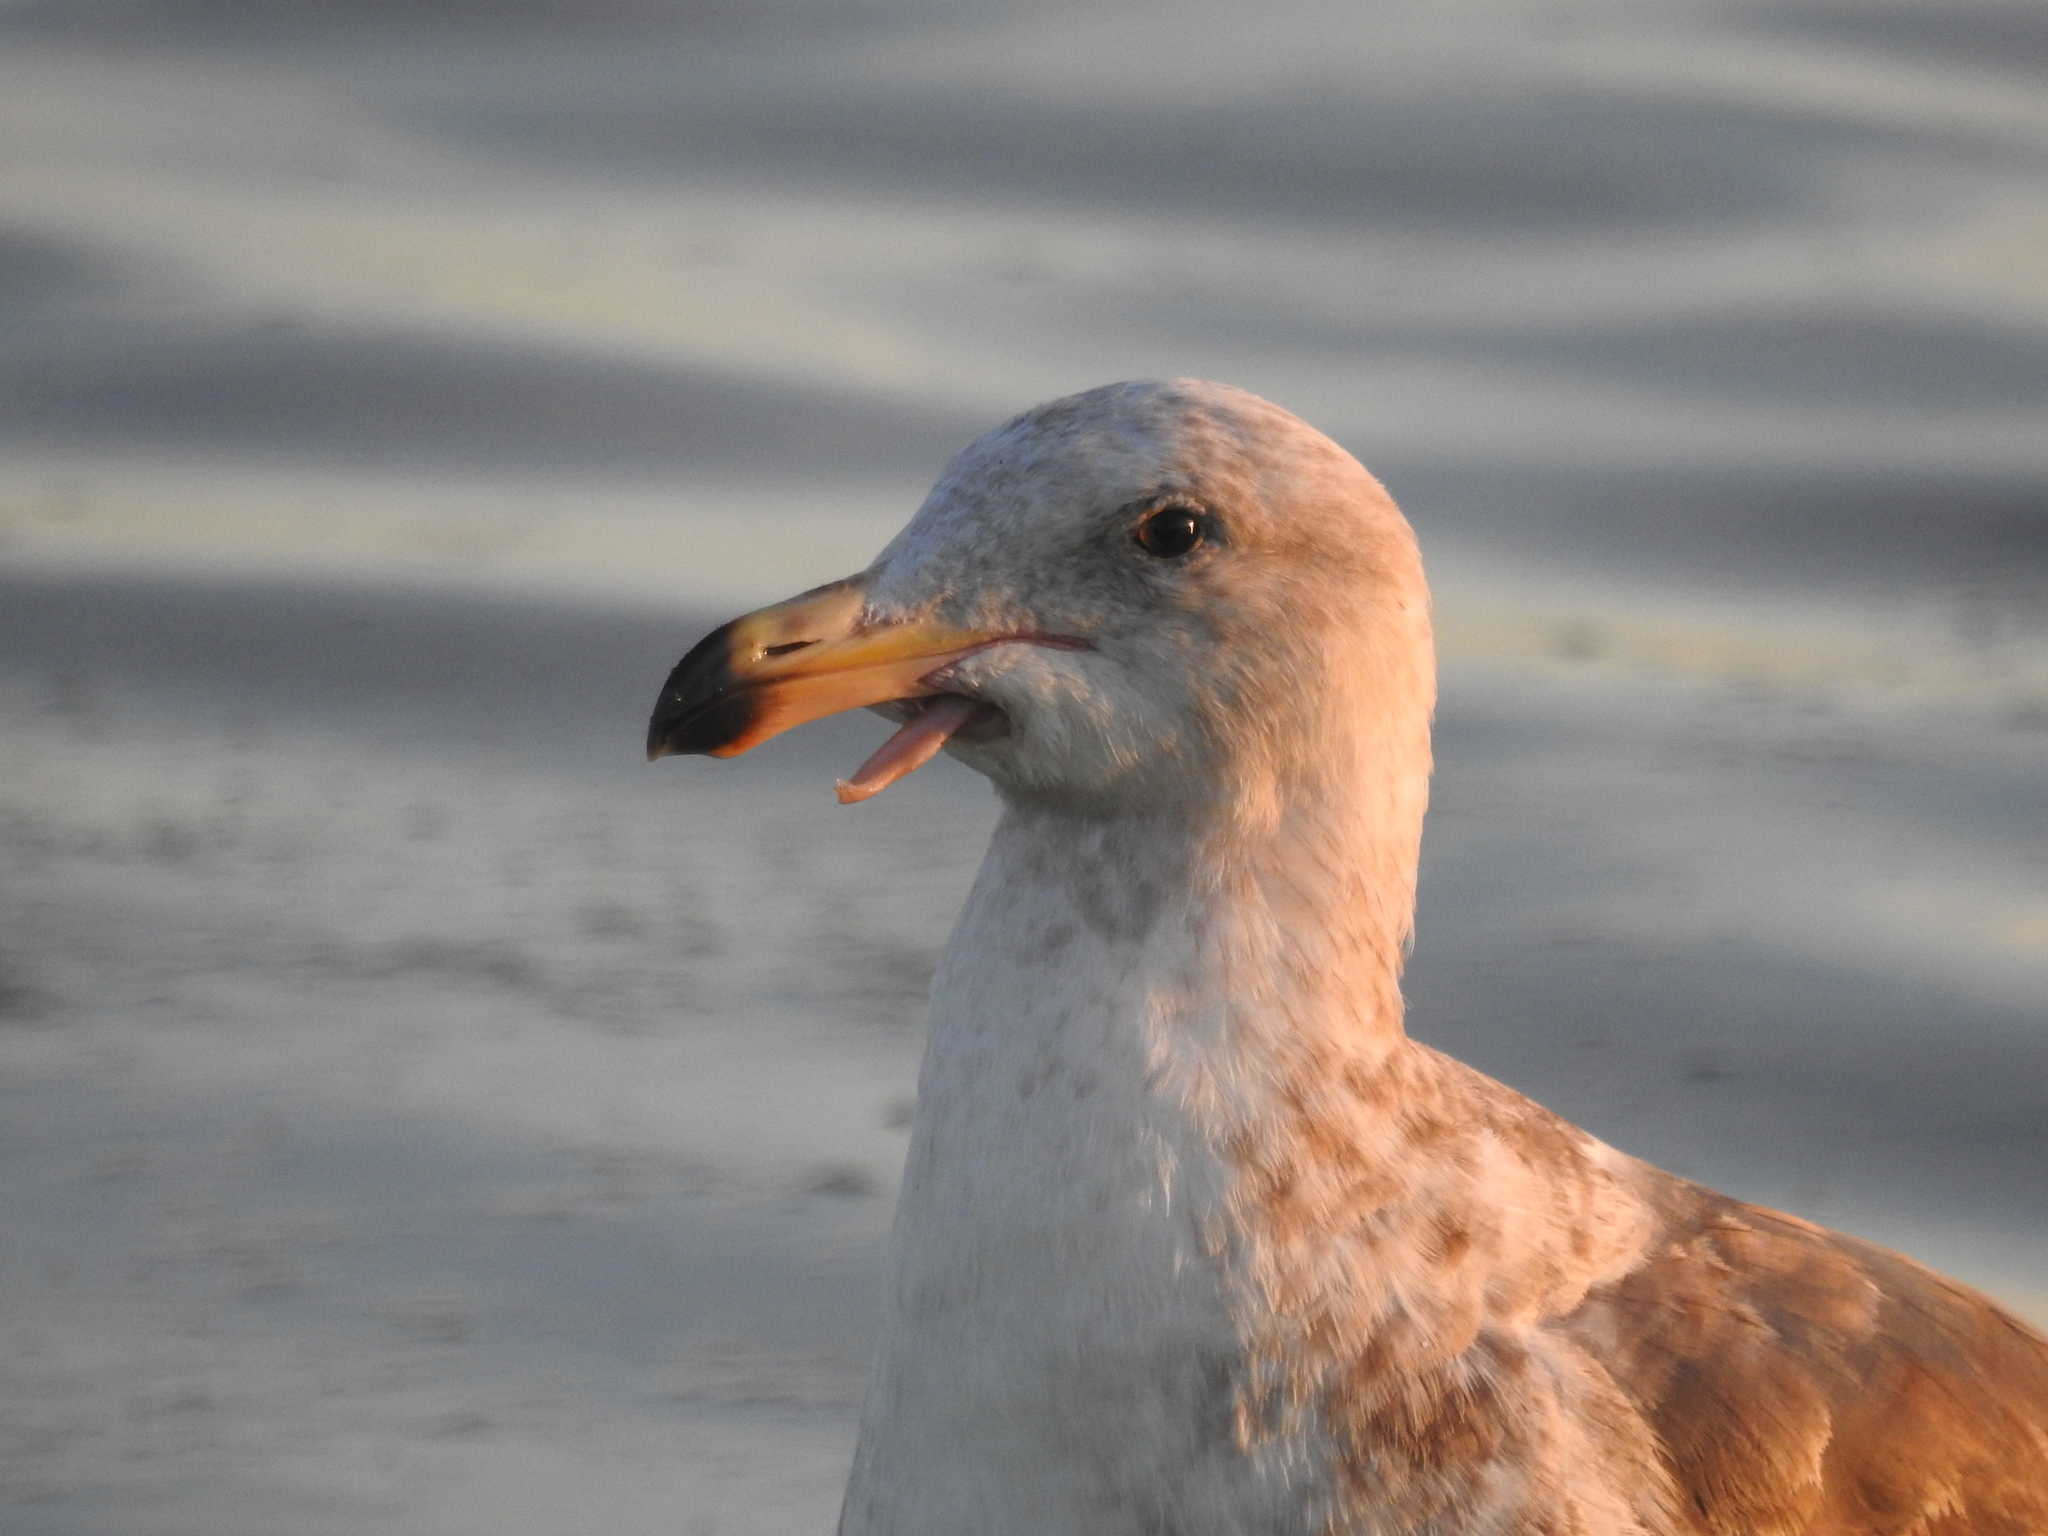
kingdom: Animalia
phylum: Chordata
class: Aves
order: Charadriiformes
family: Laridae
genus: Larus
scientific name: Larus occidentalis
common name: Western gull
